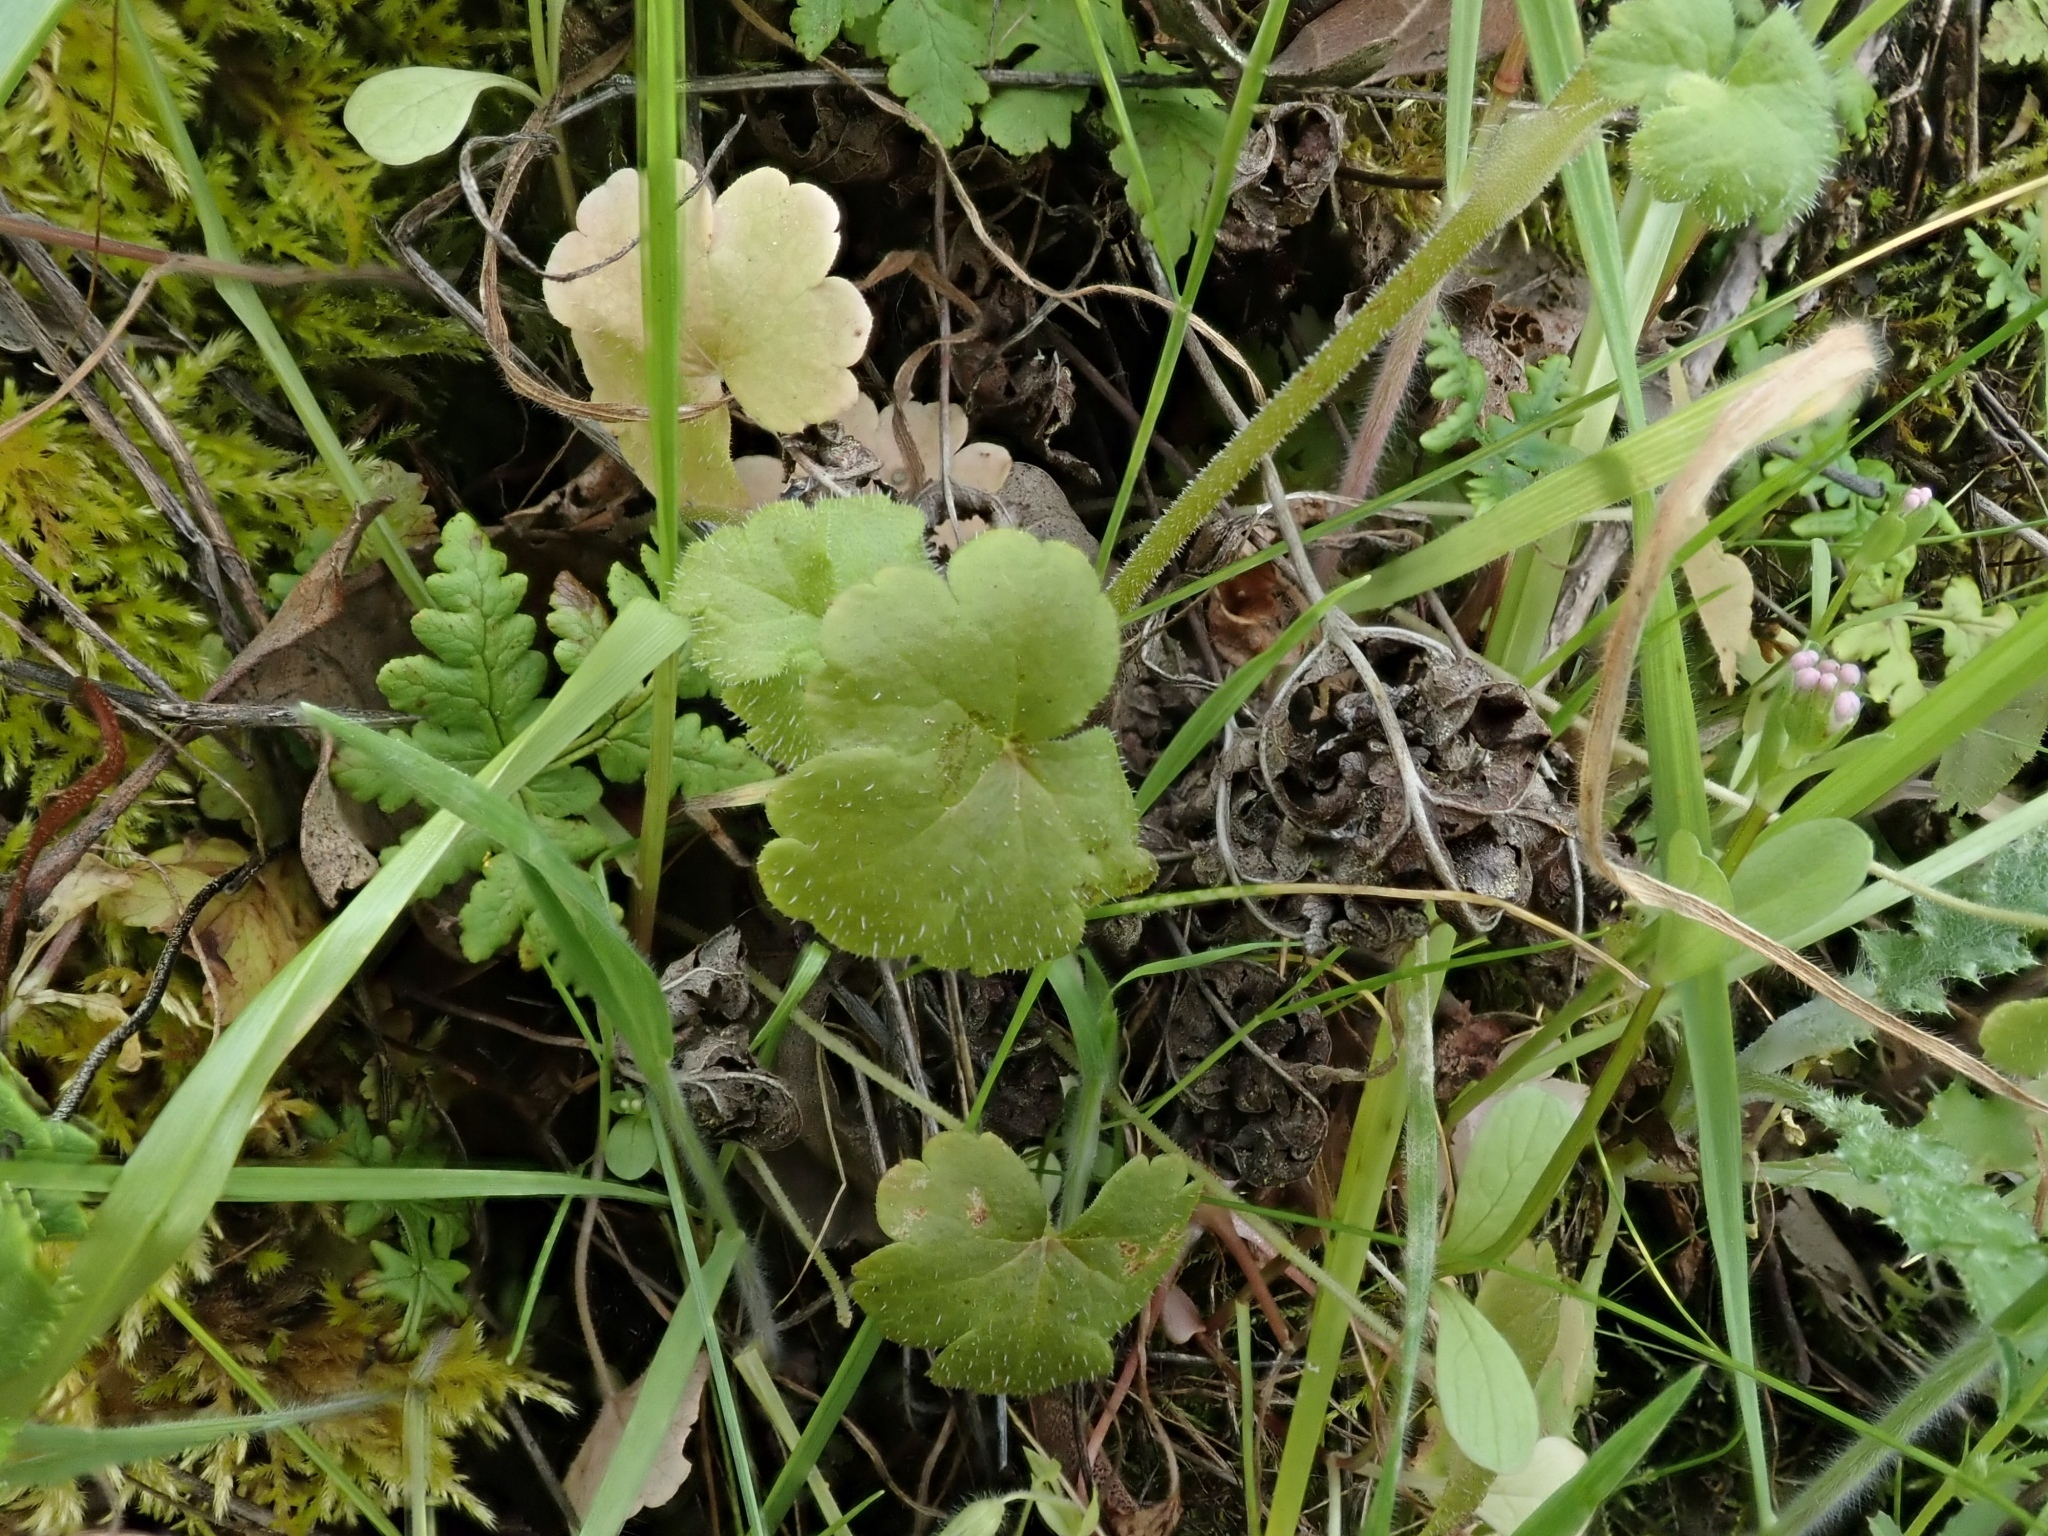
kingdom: Plantae
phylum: Tracheophyta
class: Magnoliopsida
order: Saxifragales
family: Saxifragaceae
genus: Lithophragma
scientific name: Lithophragma affine
